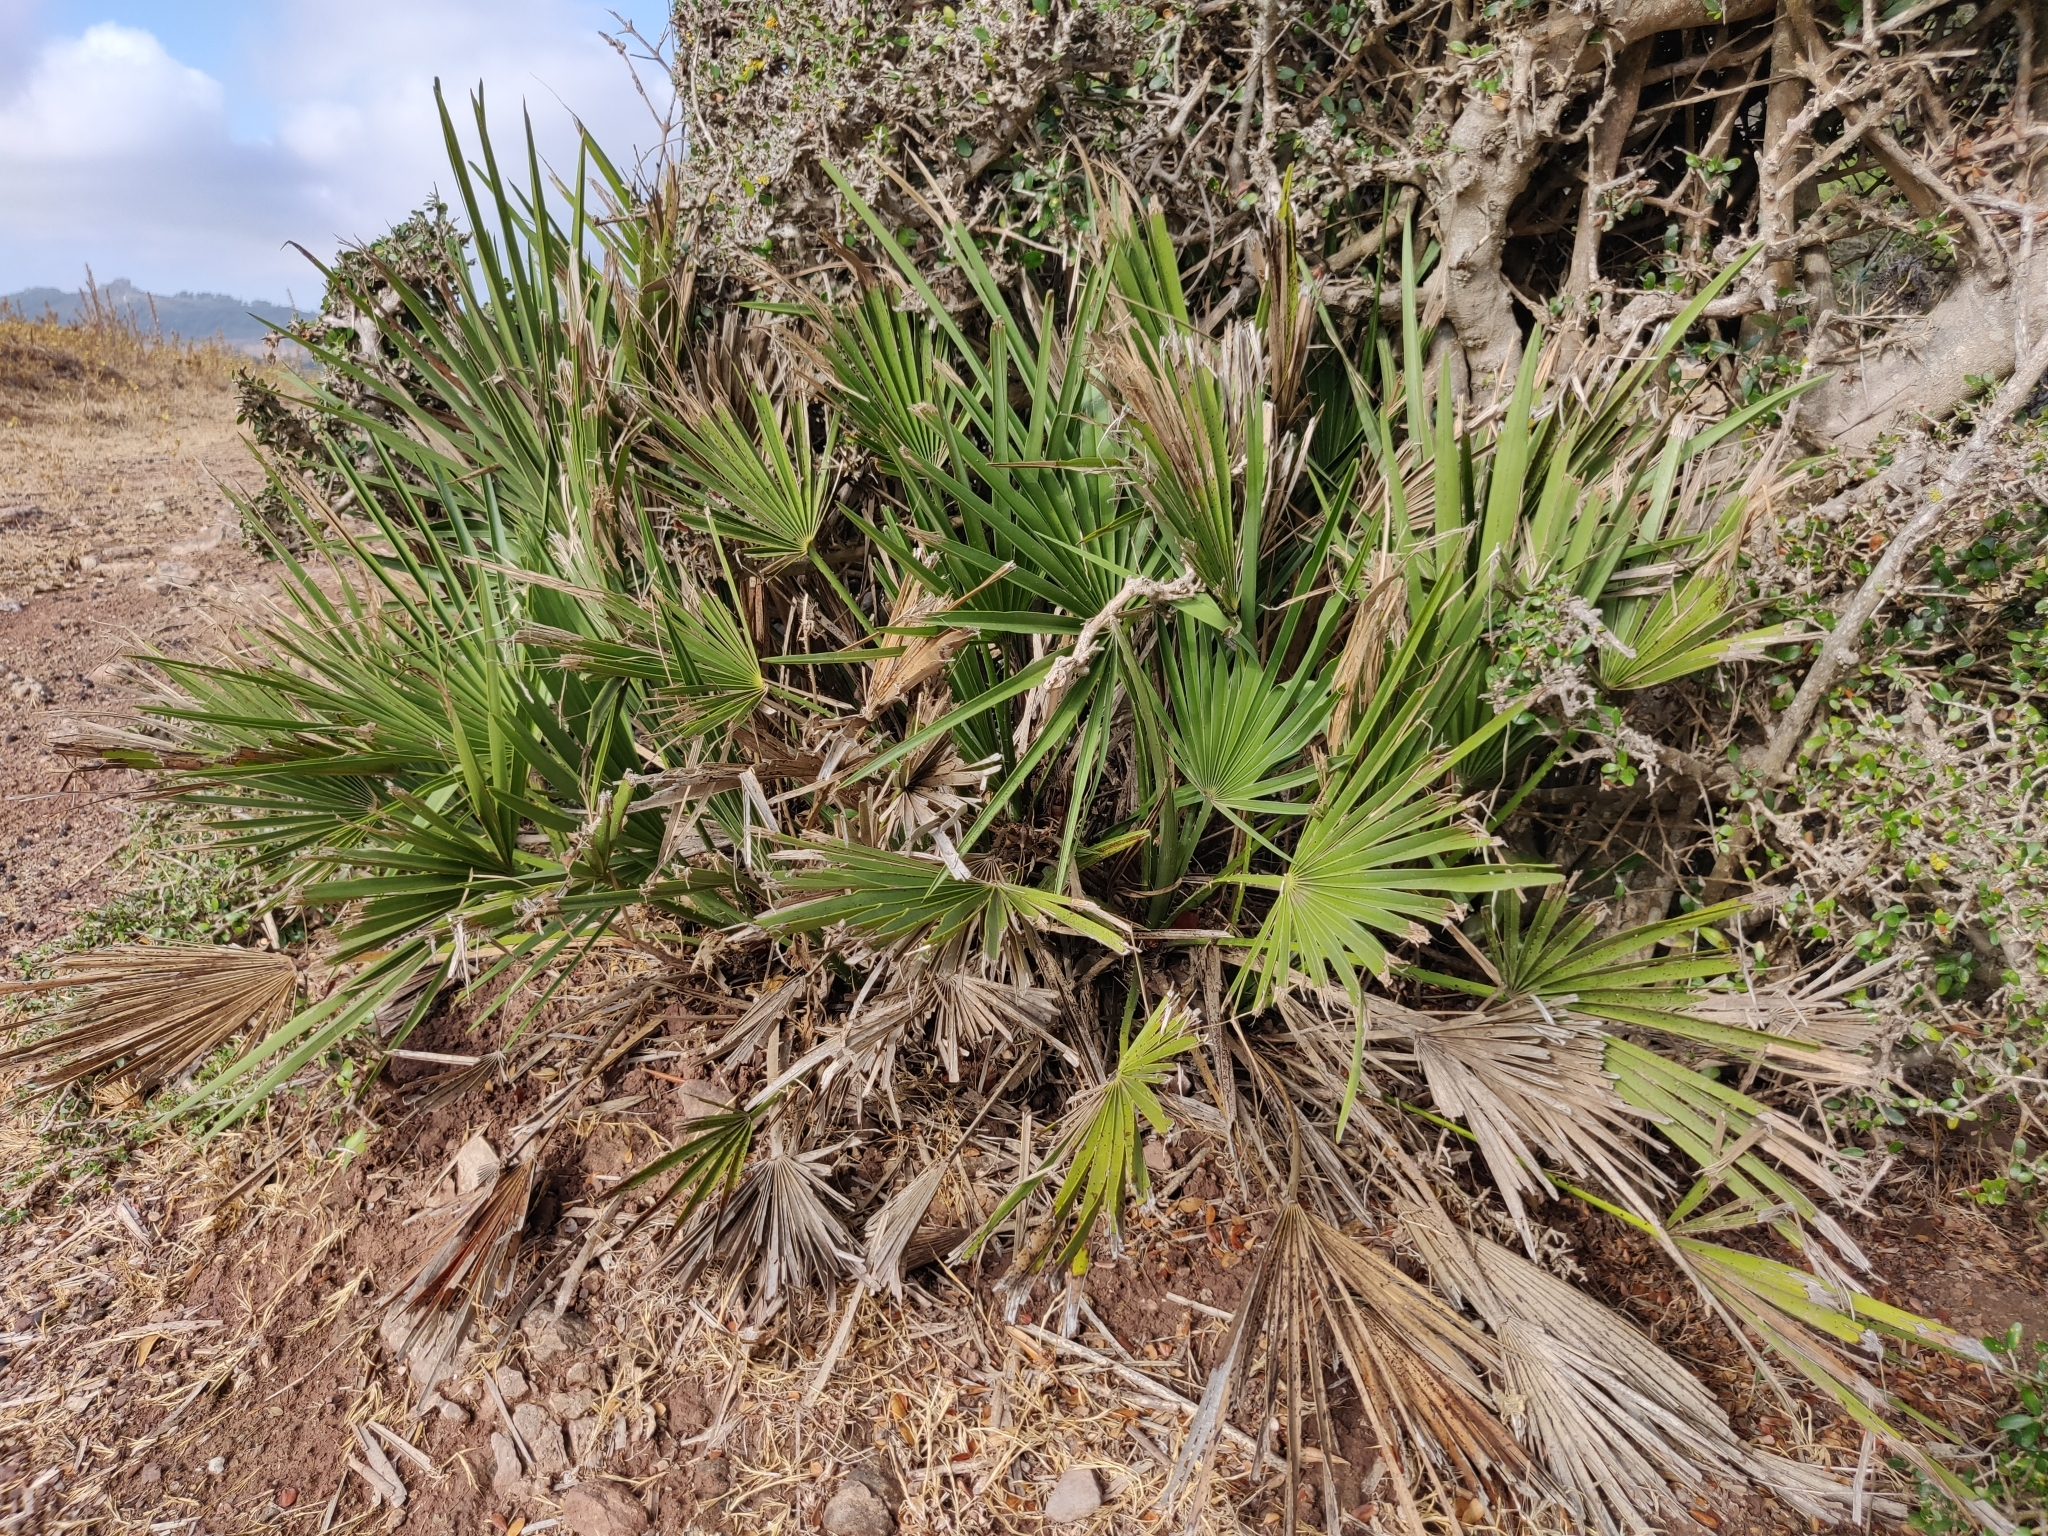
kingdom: Plantae
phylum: Tracheophyta
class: Liliopsida
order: Arecales
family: Arecaceae
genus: Chamaerops
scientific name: Chamaerops humilis
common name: Dwarf fan palm
